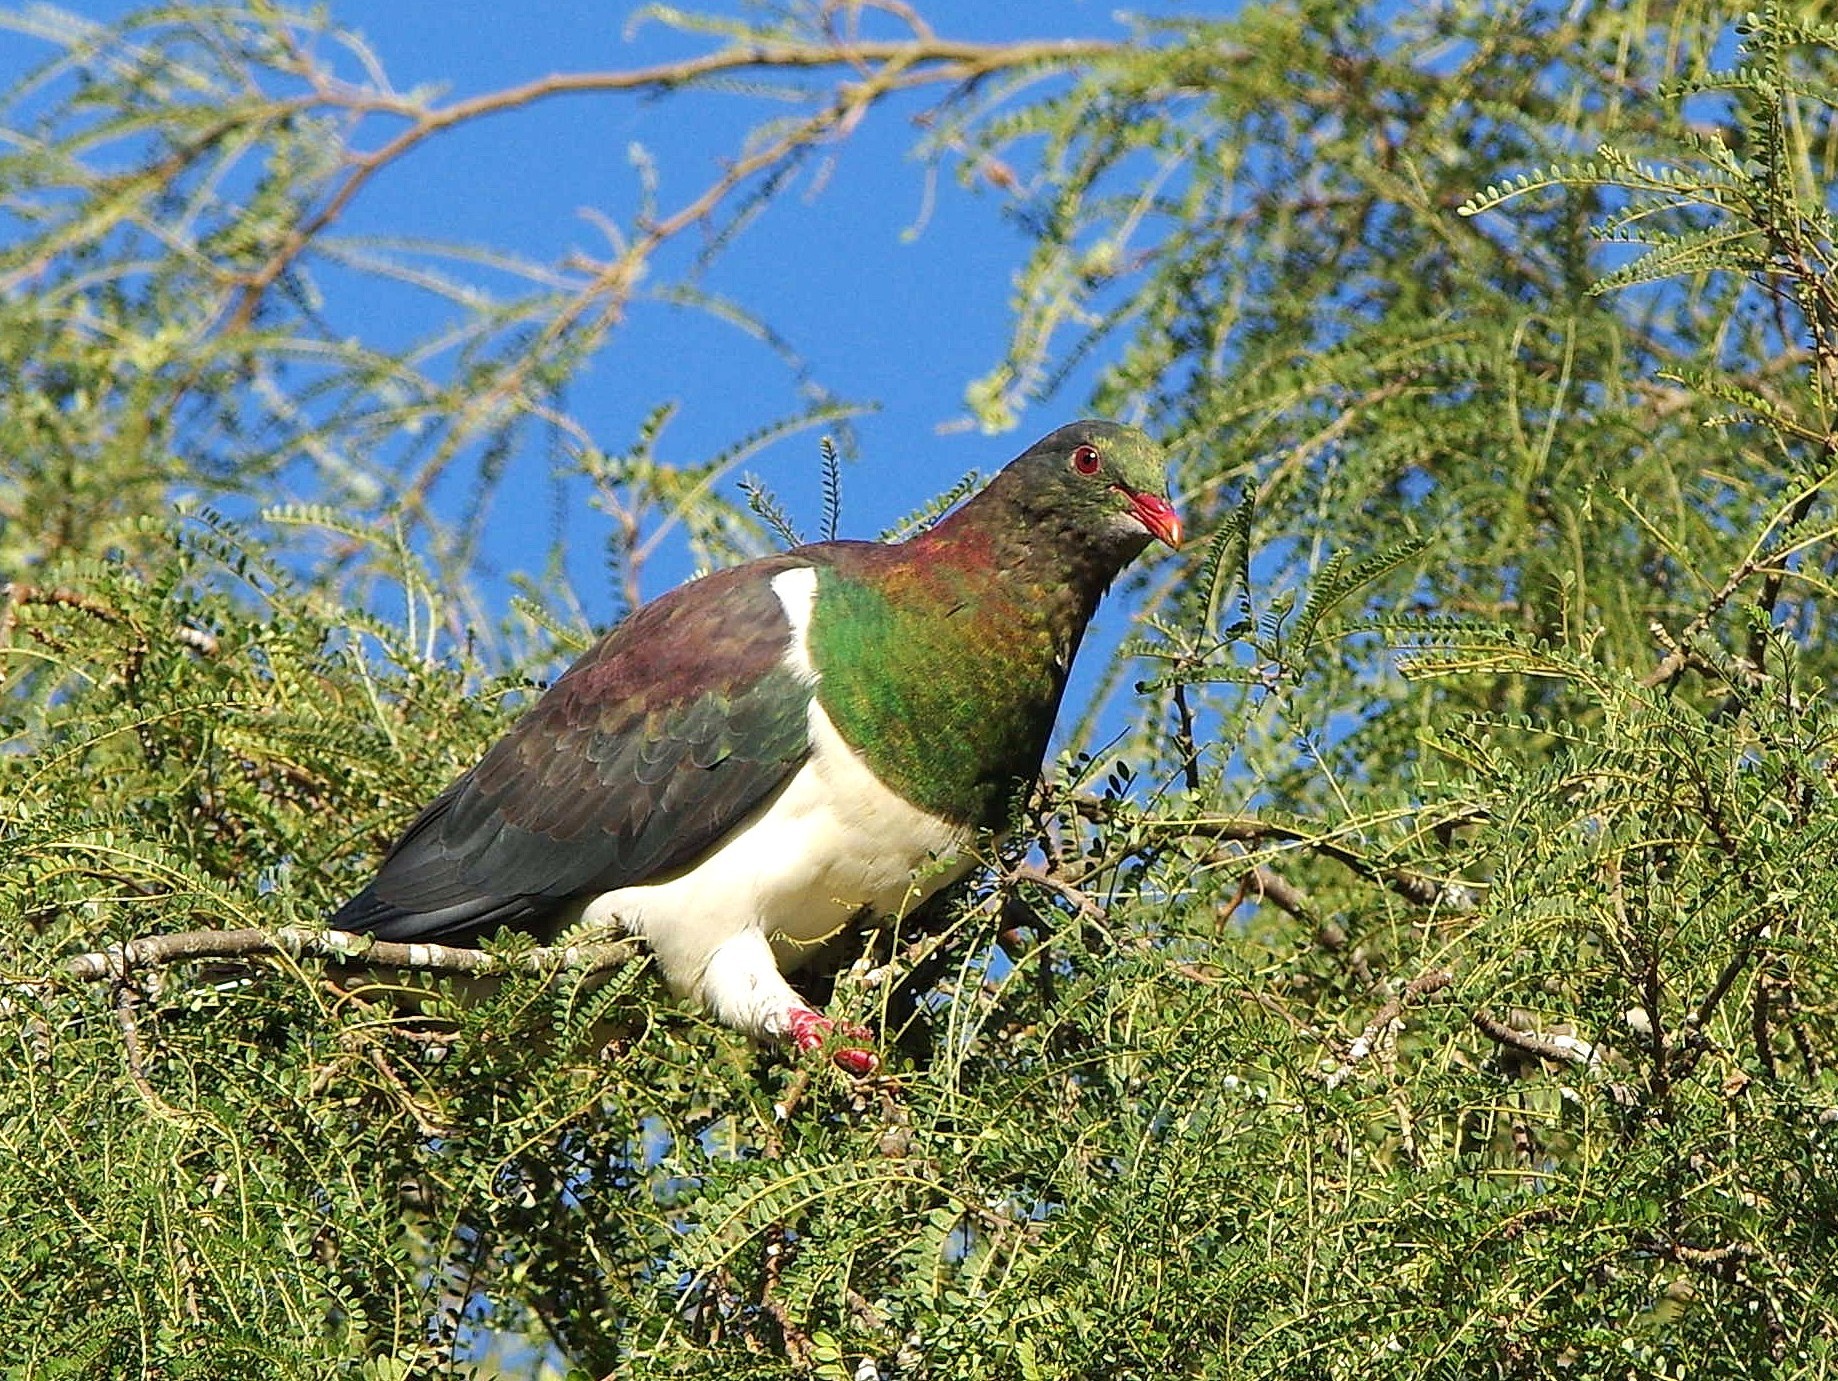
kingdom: Animalia
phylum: Chordata
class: Aves
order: Columbiformes
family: Columbidae
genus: Hemiphaga
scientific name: Hemiphaga novaeseelandiae
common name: New zealand pigeon
